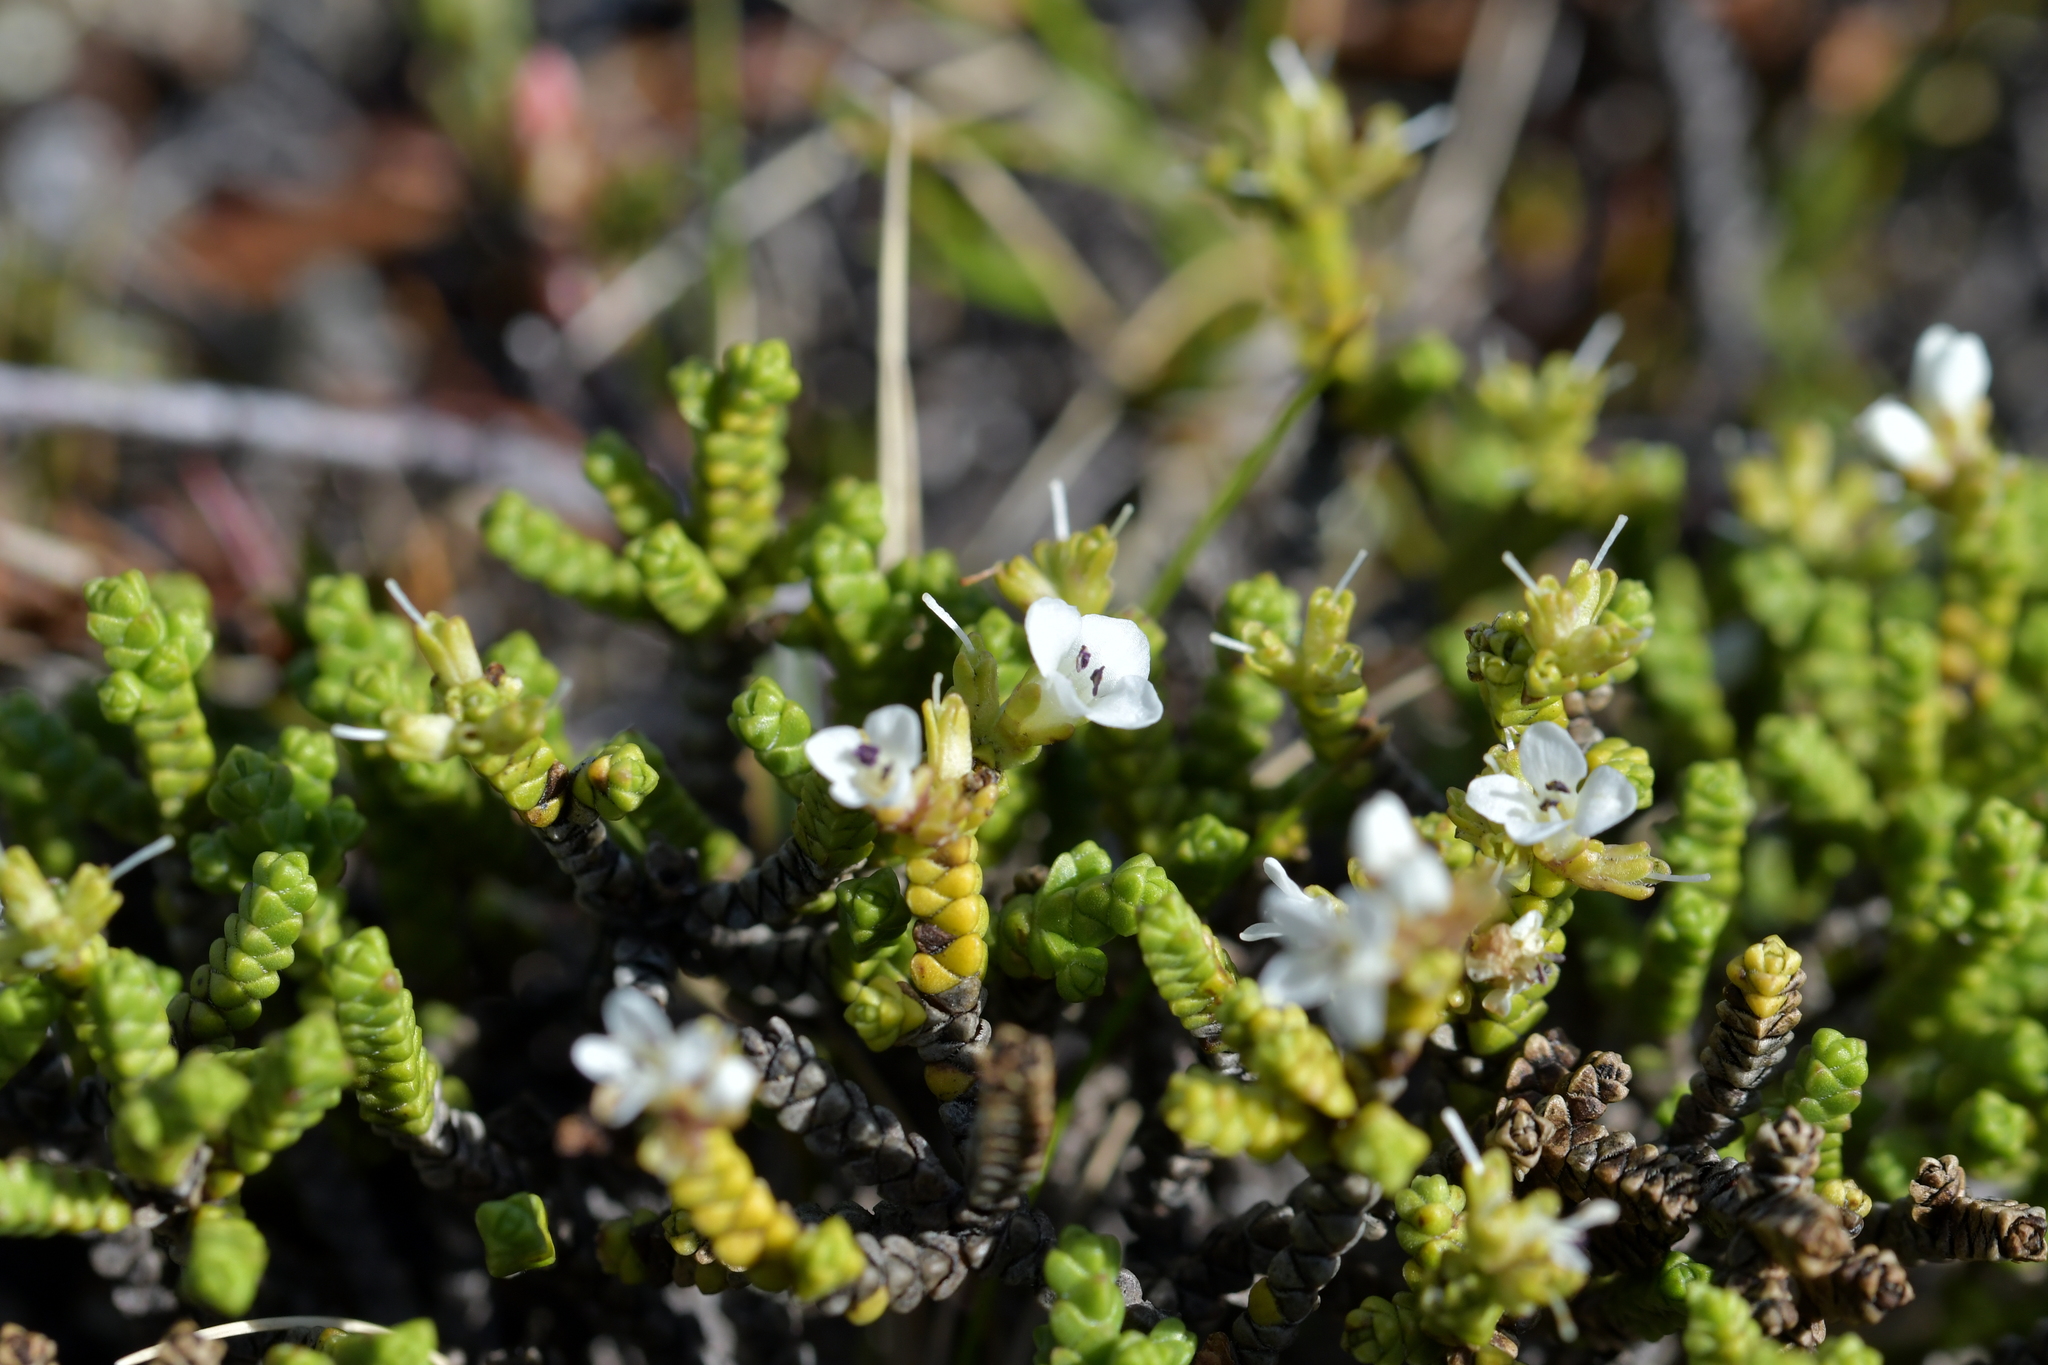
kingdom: Plantae
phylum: Tracheophyta
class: Magnoliopsida
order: Lamiales
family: Plantaginaceae
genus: Veronica
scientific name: Veronica tumida
